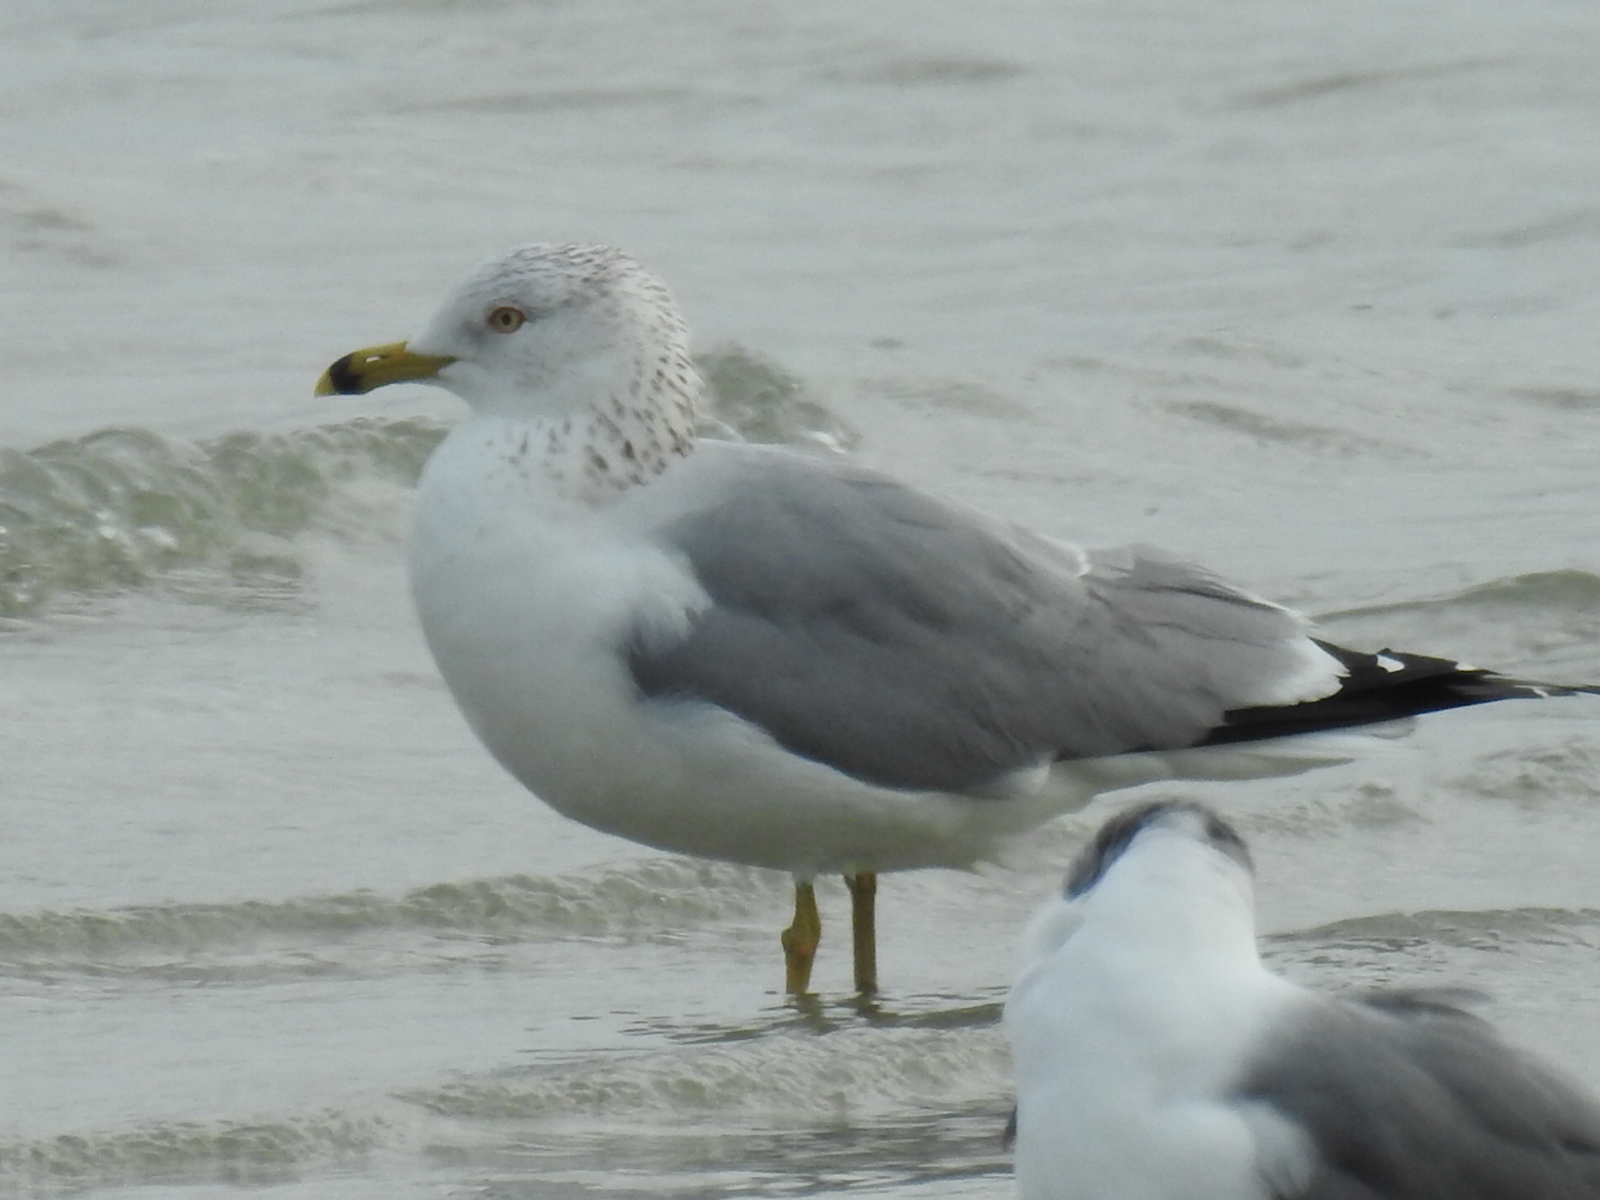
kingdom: Animalia
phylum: Chordata
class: Aves
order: Charadriiformes
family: Laridae
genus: Larus
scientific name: Larus delawarensis
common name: Ring-billed gull
